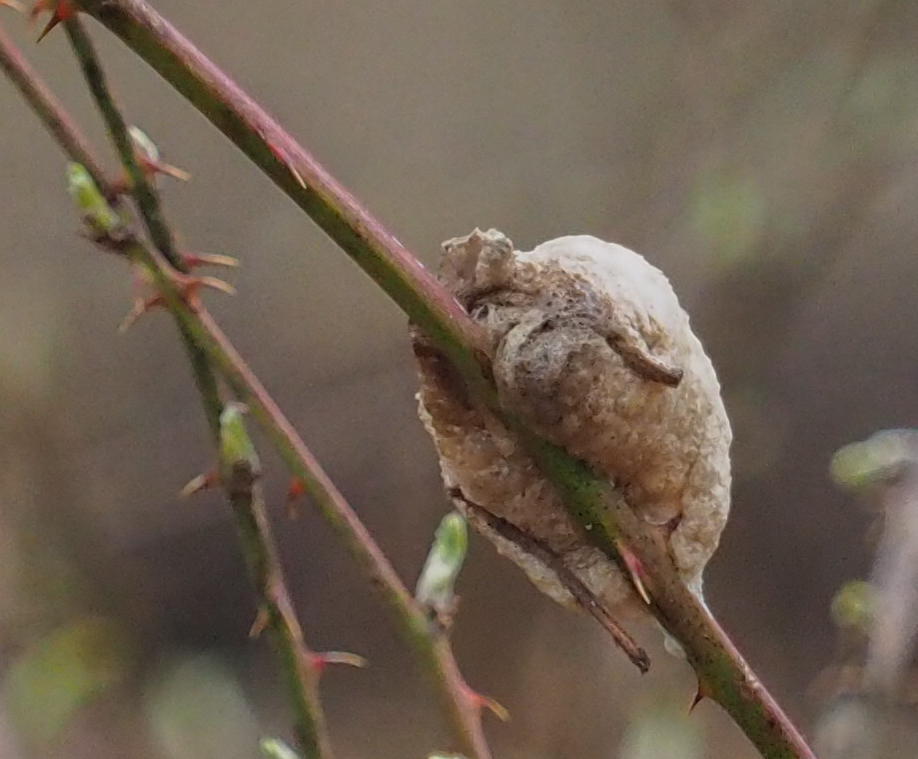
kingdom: Animalia
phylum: Arthropoda
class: Insecta
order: Mantodea
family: Mantidae
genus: Tenodera
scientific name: Tenodera sinensis
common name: Chinese mantis
